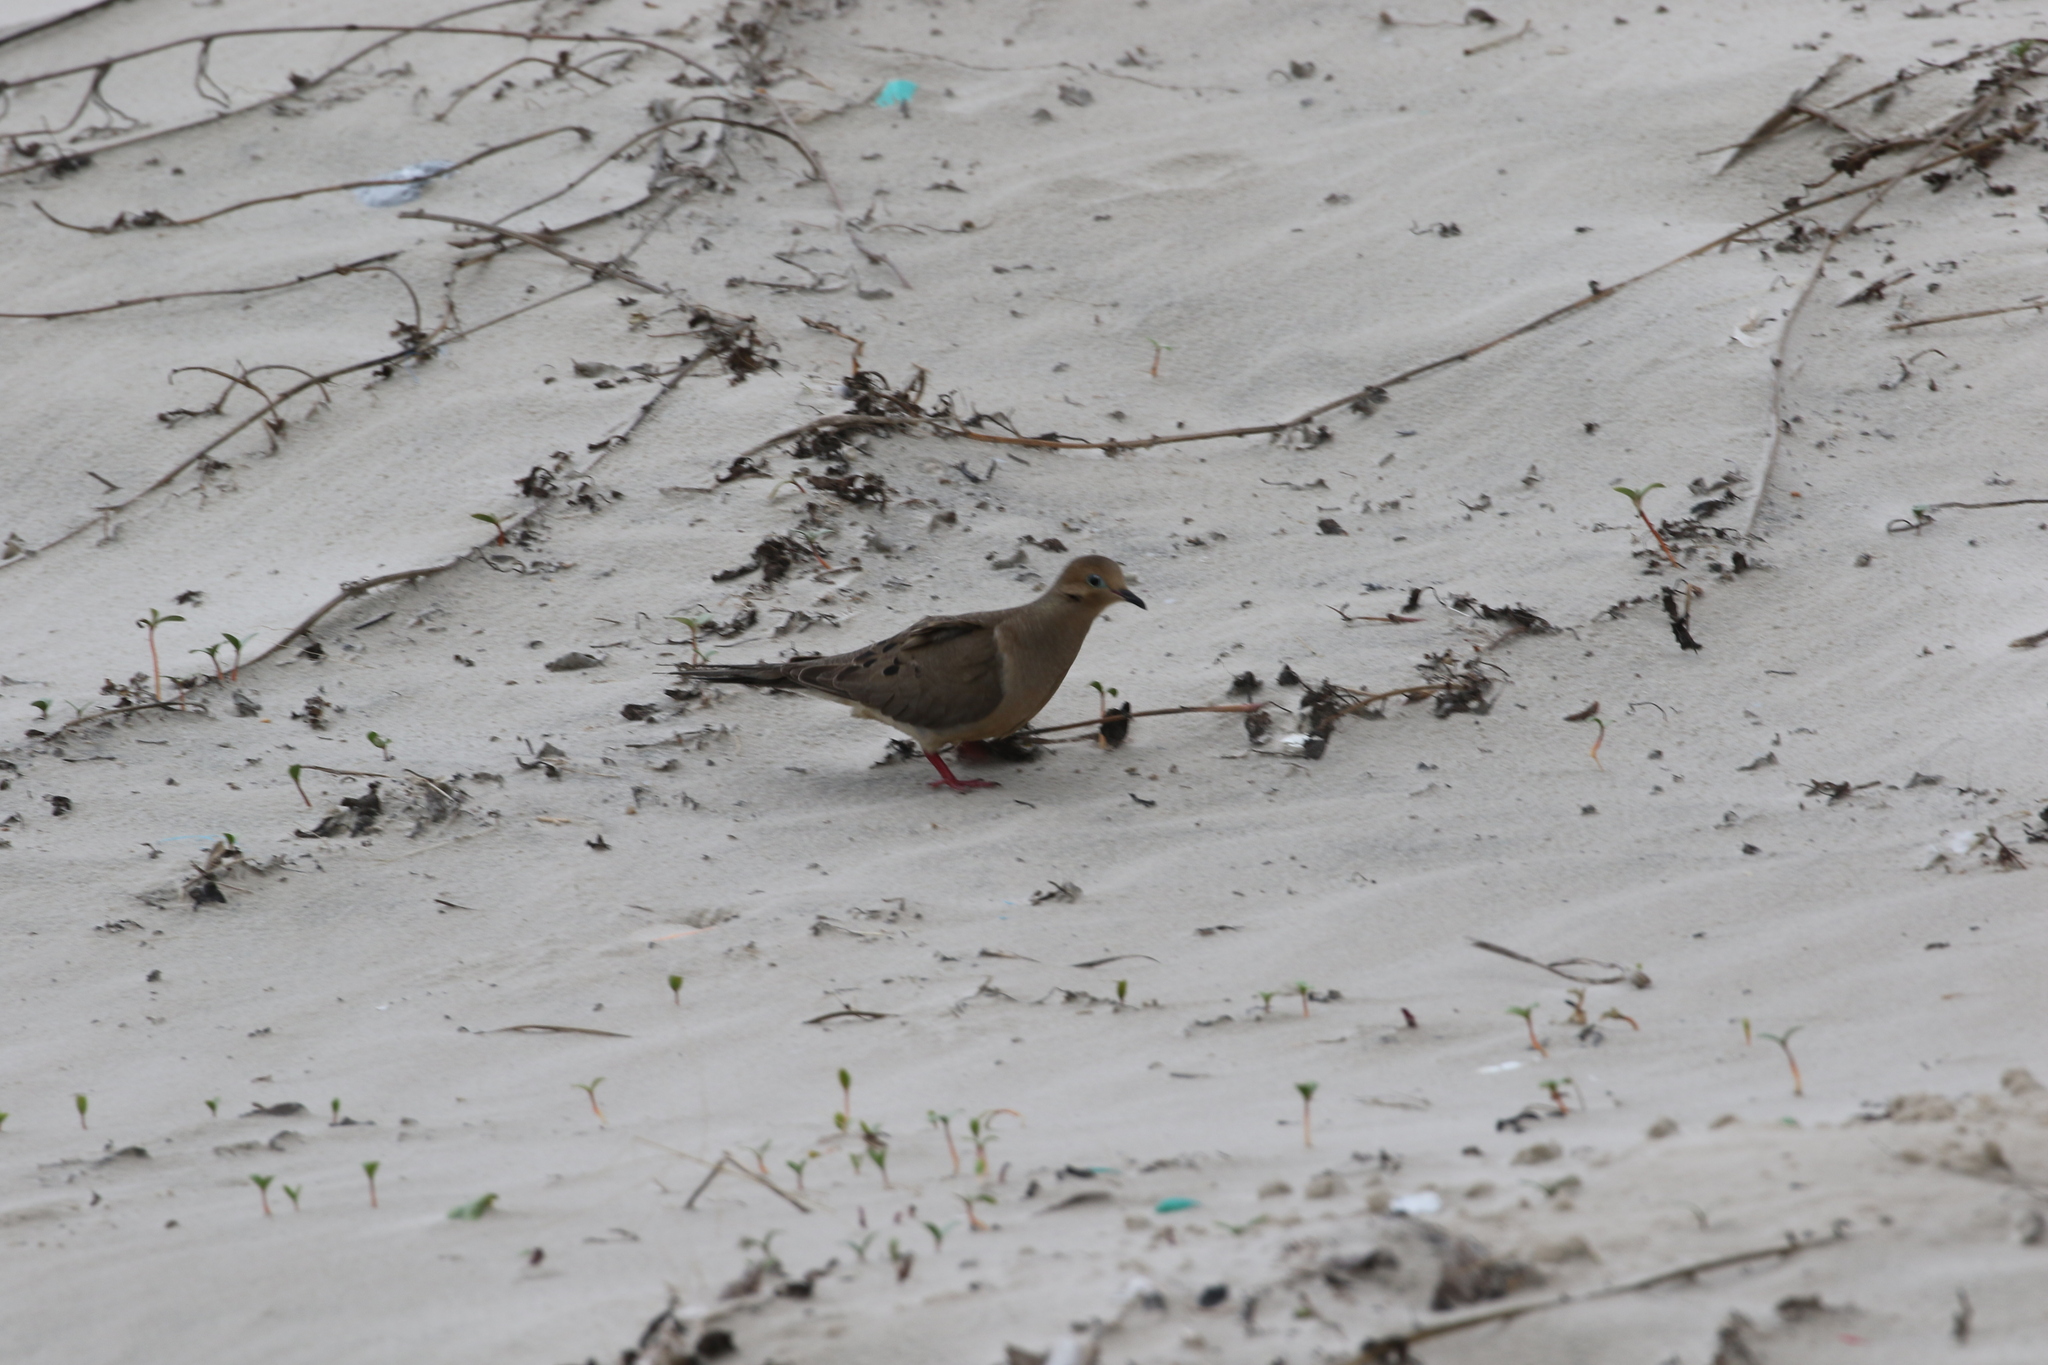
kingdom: Animalia
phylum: Chordata
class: Aves
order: Columbiformes
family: Columbidae
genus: Zenaida
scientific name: Zenaida macroura
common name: Mourning dove
